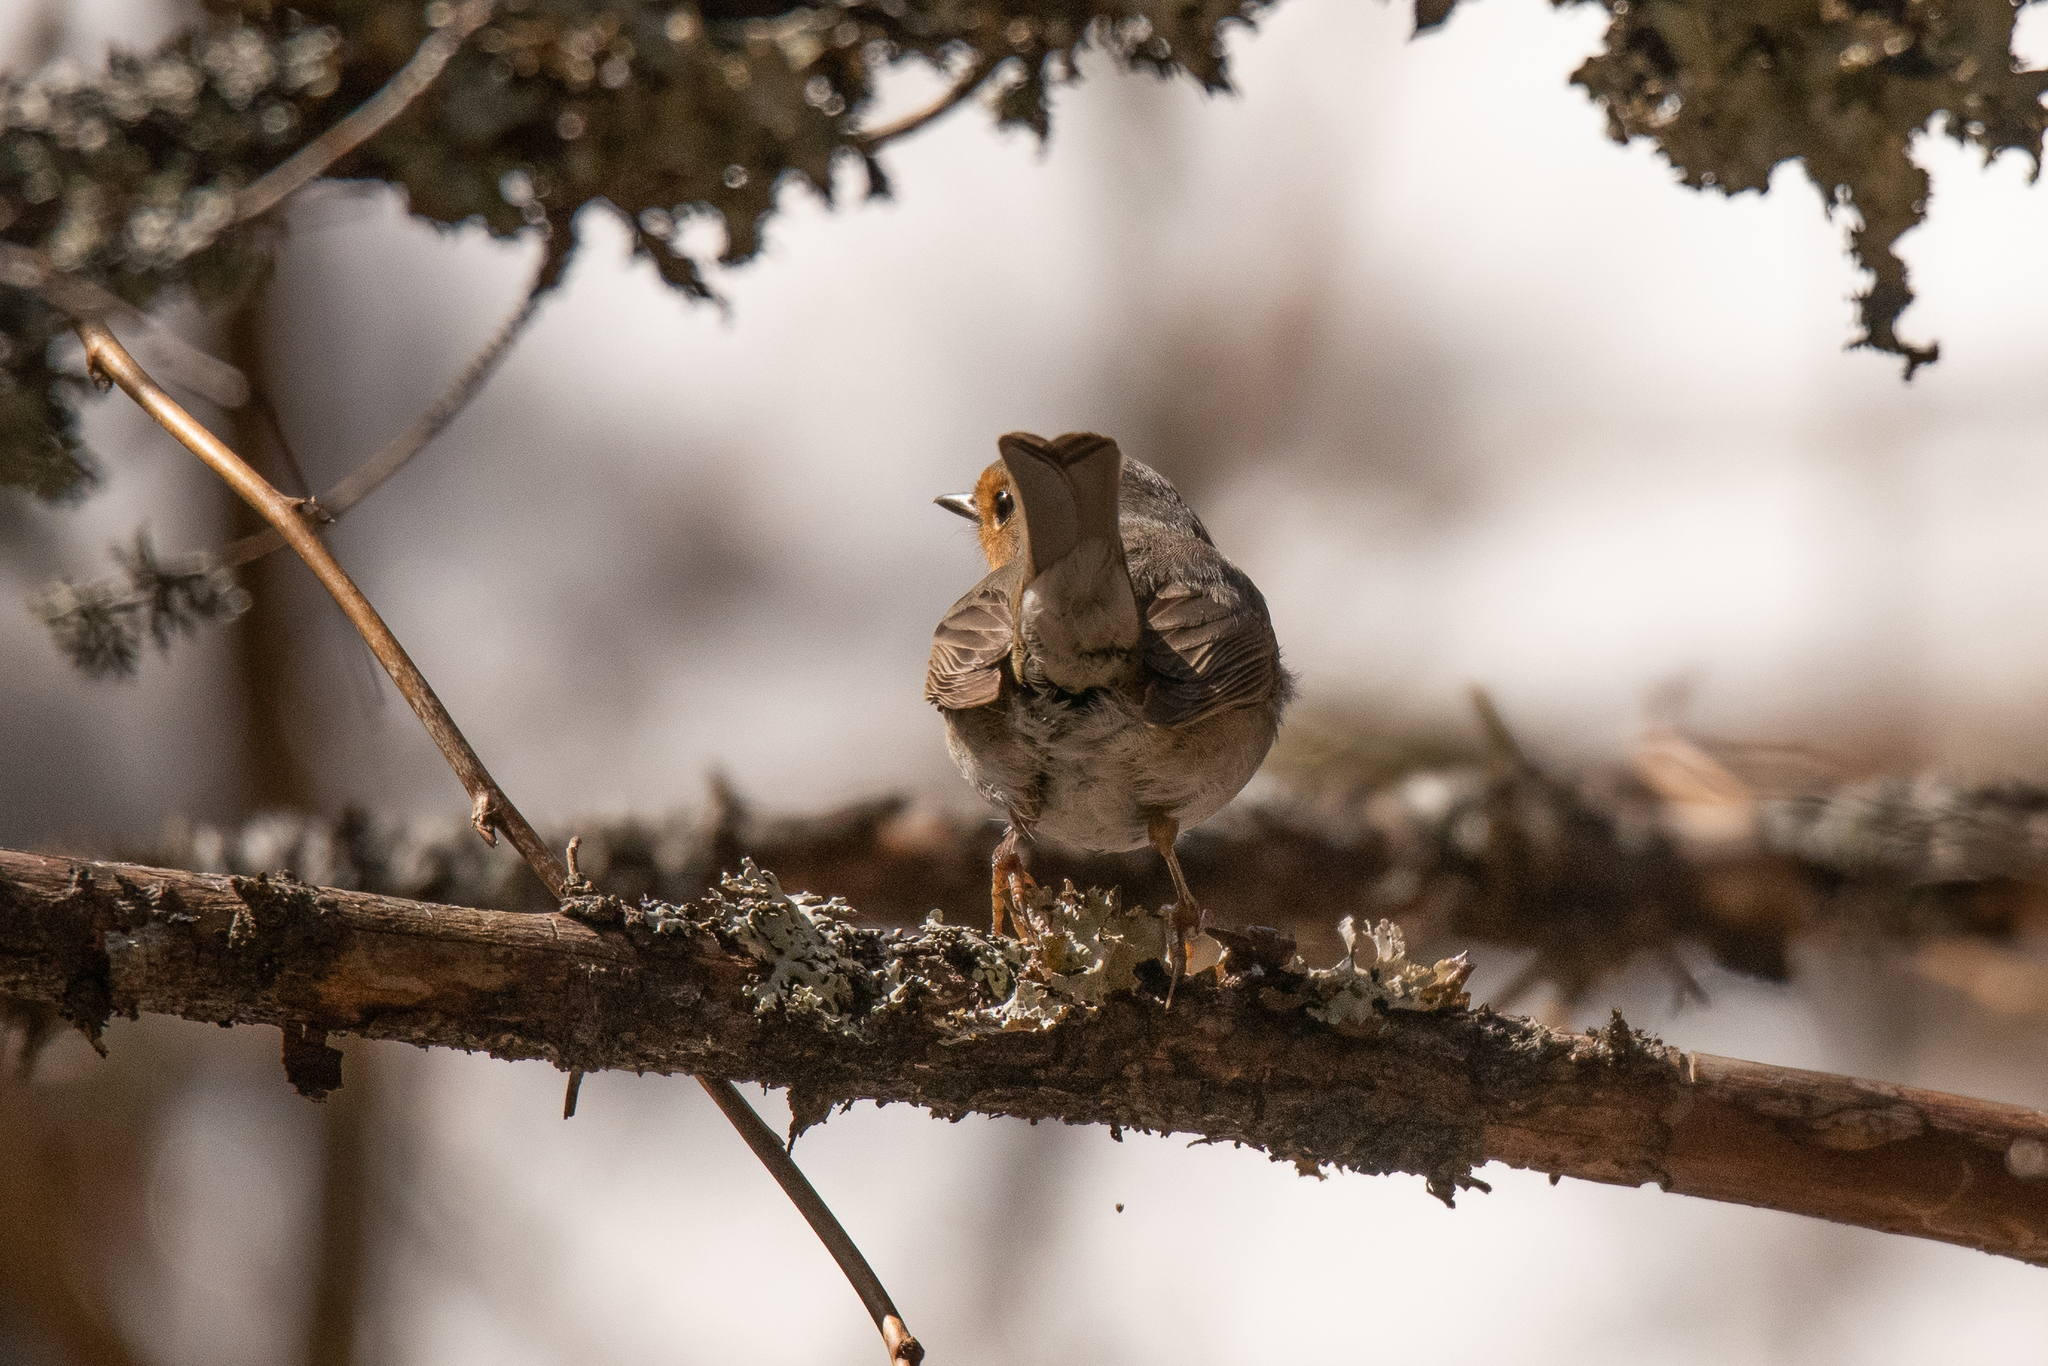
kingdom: Animalia
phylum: Chordata
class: Aves
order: Passeriformes
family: Muscicapidae
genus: Erithacus
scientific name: Erithacus rubecula
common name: European robin
